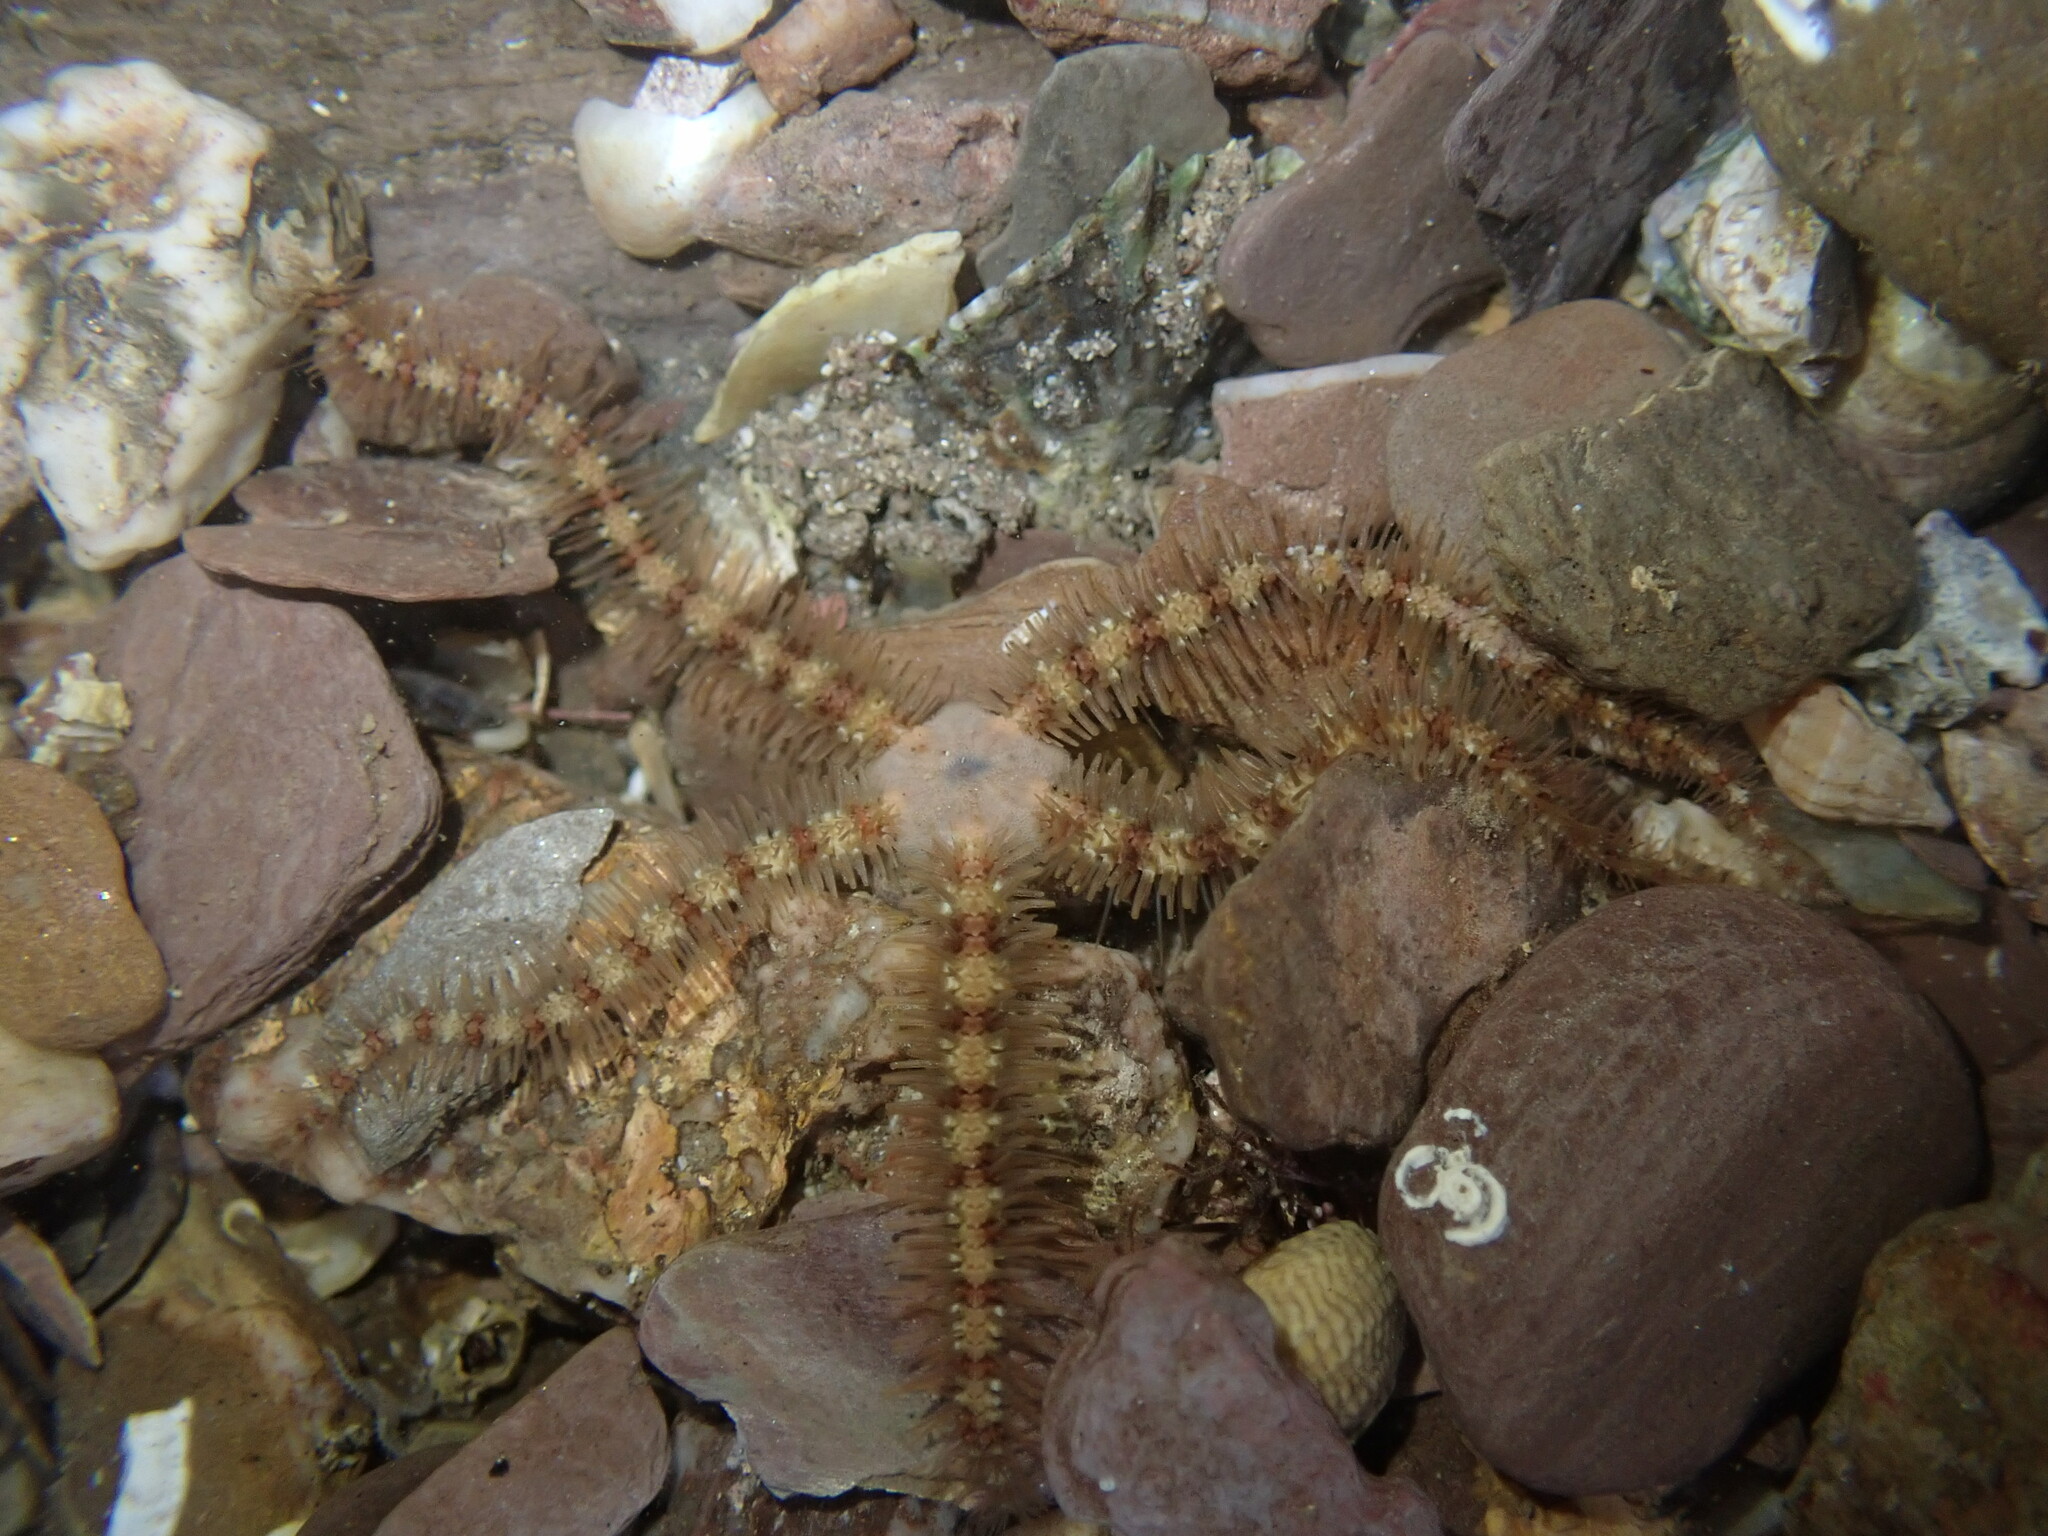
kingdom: Animalia
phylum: Echinodermata
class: Ophiuroidea
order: Amphilepidida
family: Ophiotrichidae
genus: Ophiothrix
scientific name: Ophiothrix fragilis
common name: Common brittlestar
